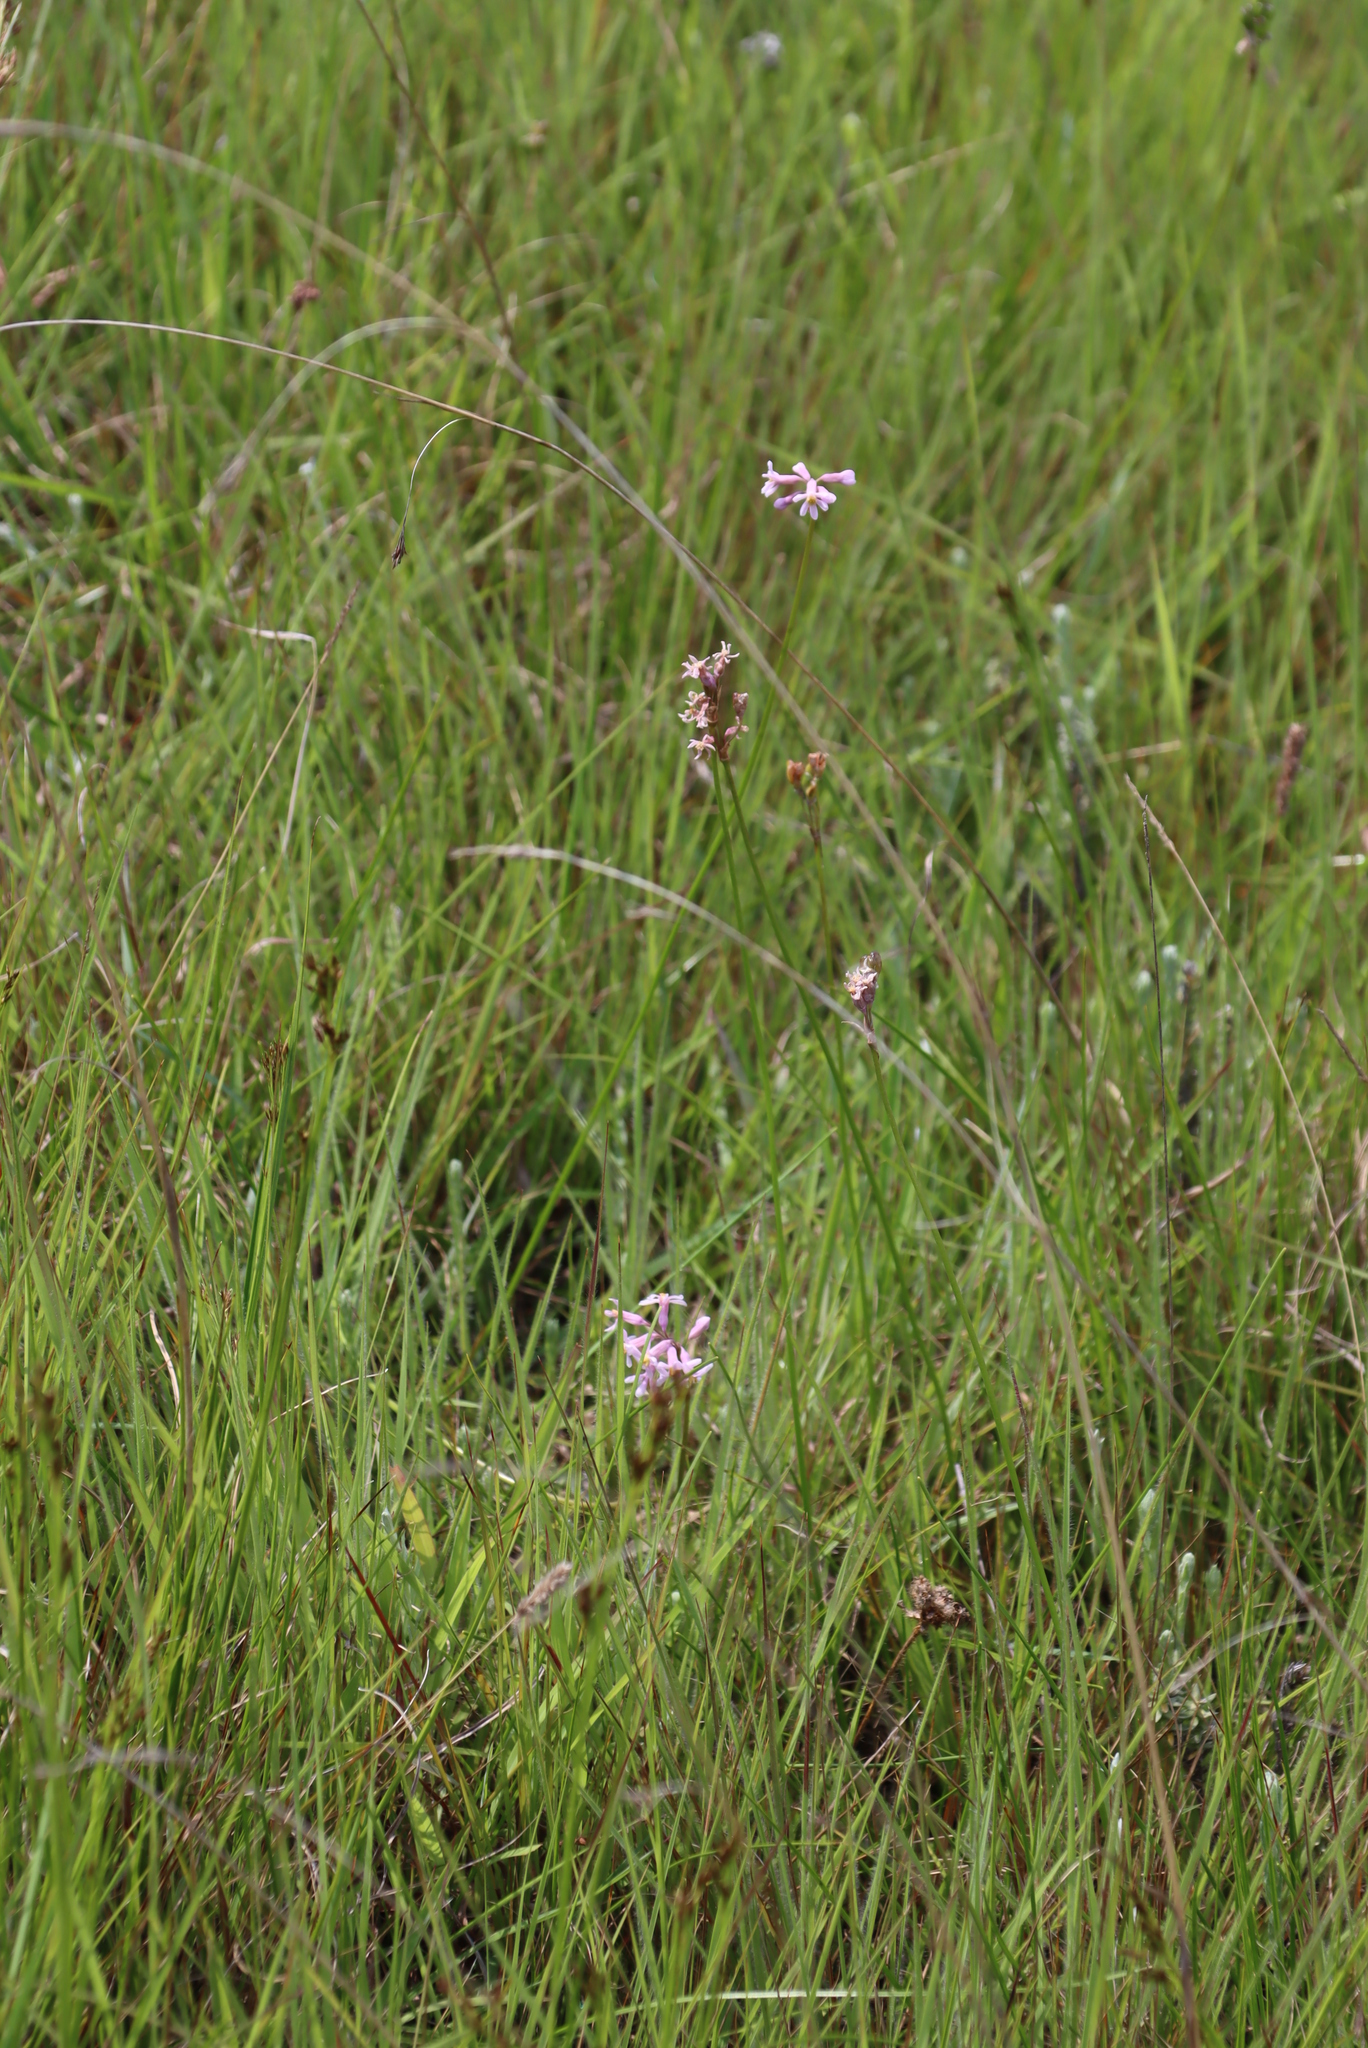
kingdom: Plantae
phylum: Tracheophyta
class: Liliopsida
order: Asparagales
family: Amaryllidaceae
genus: Tulbaghia
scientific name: Tulbaghia coddii
